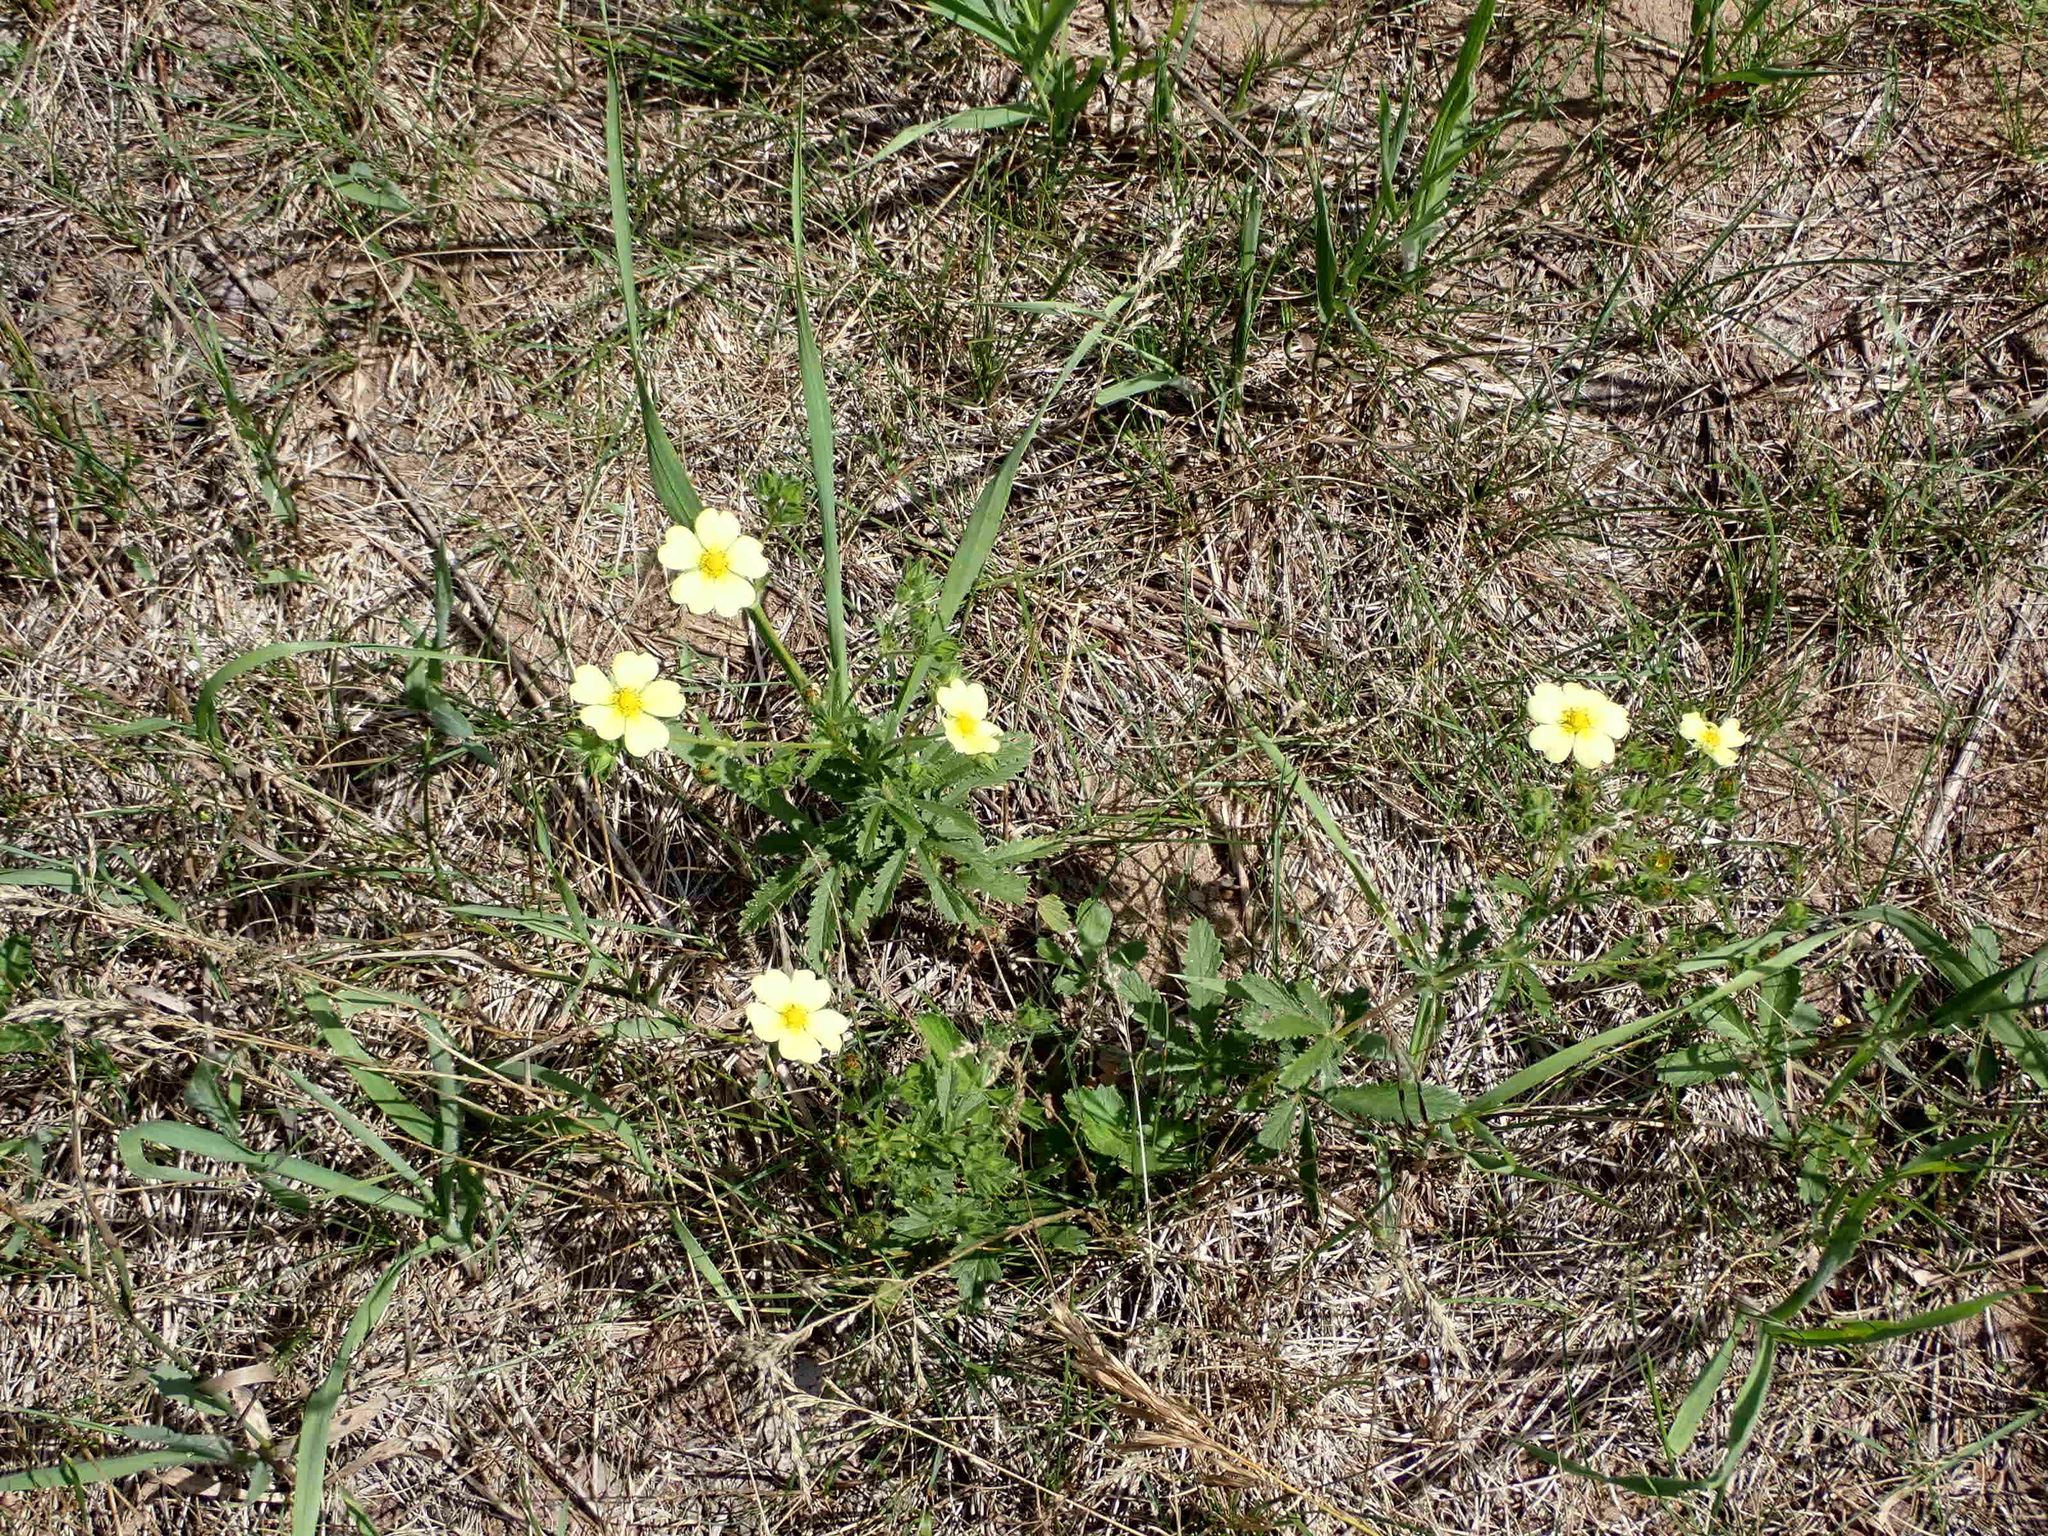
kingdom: Plantae
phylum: Tracheophyta
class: Magnoliopsida
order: Rosales
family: Rosaceae
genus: Potentilla
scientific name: Potentilla recta
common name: Sulphur cinquefoil
